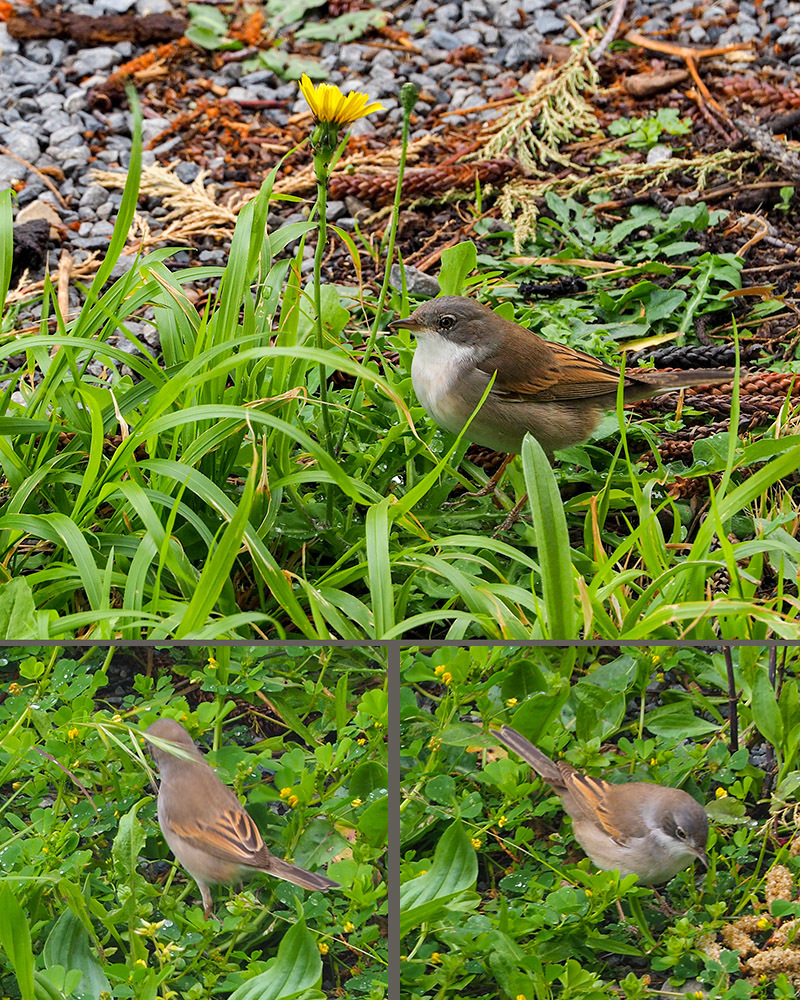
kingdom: Animalia
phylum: Chordata
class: Aves
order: Passeriformes
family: Sylviidae
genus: Sylvia
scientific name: Sylvia communis
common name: Common whitethroat
